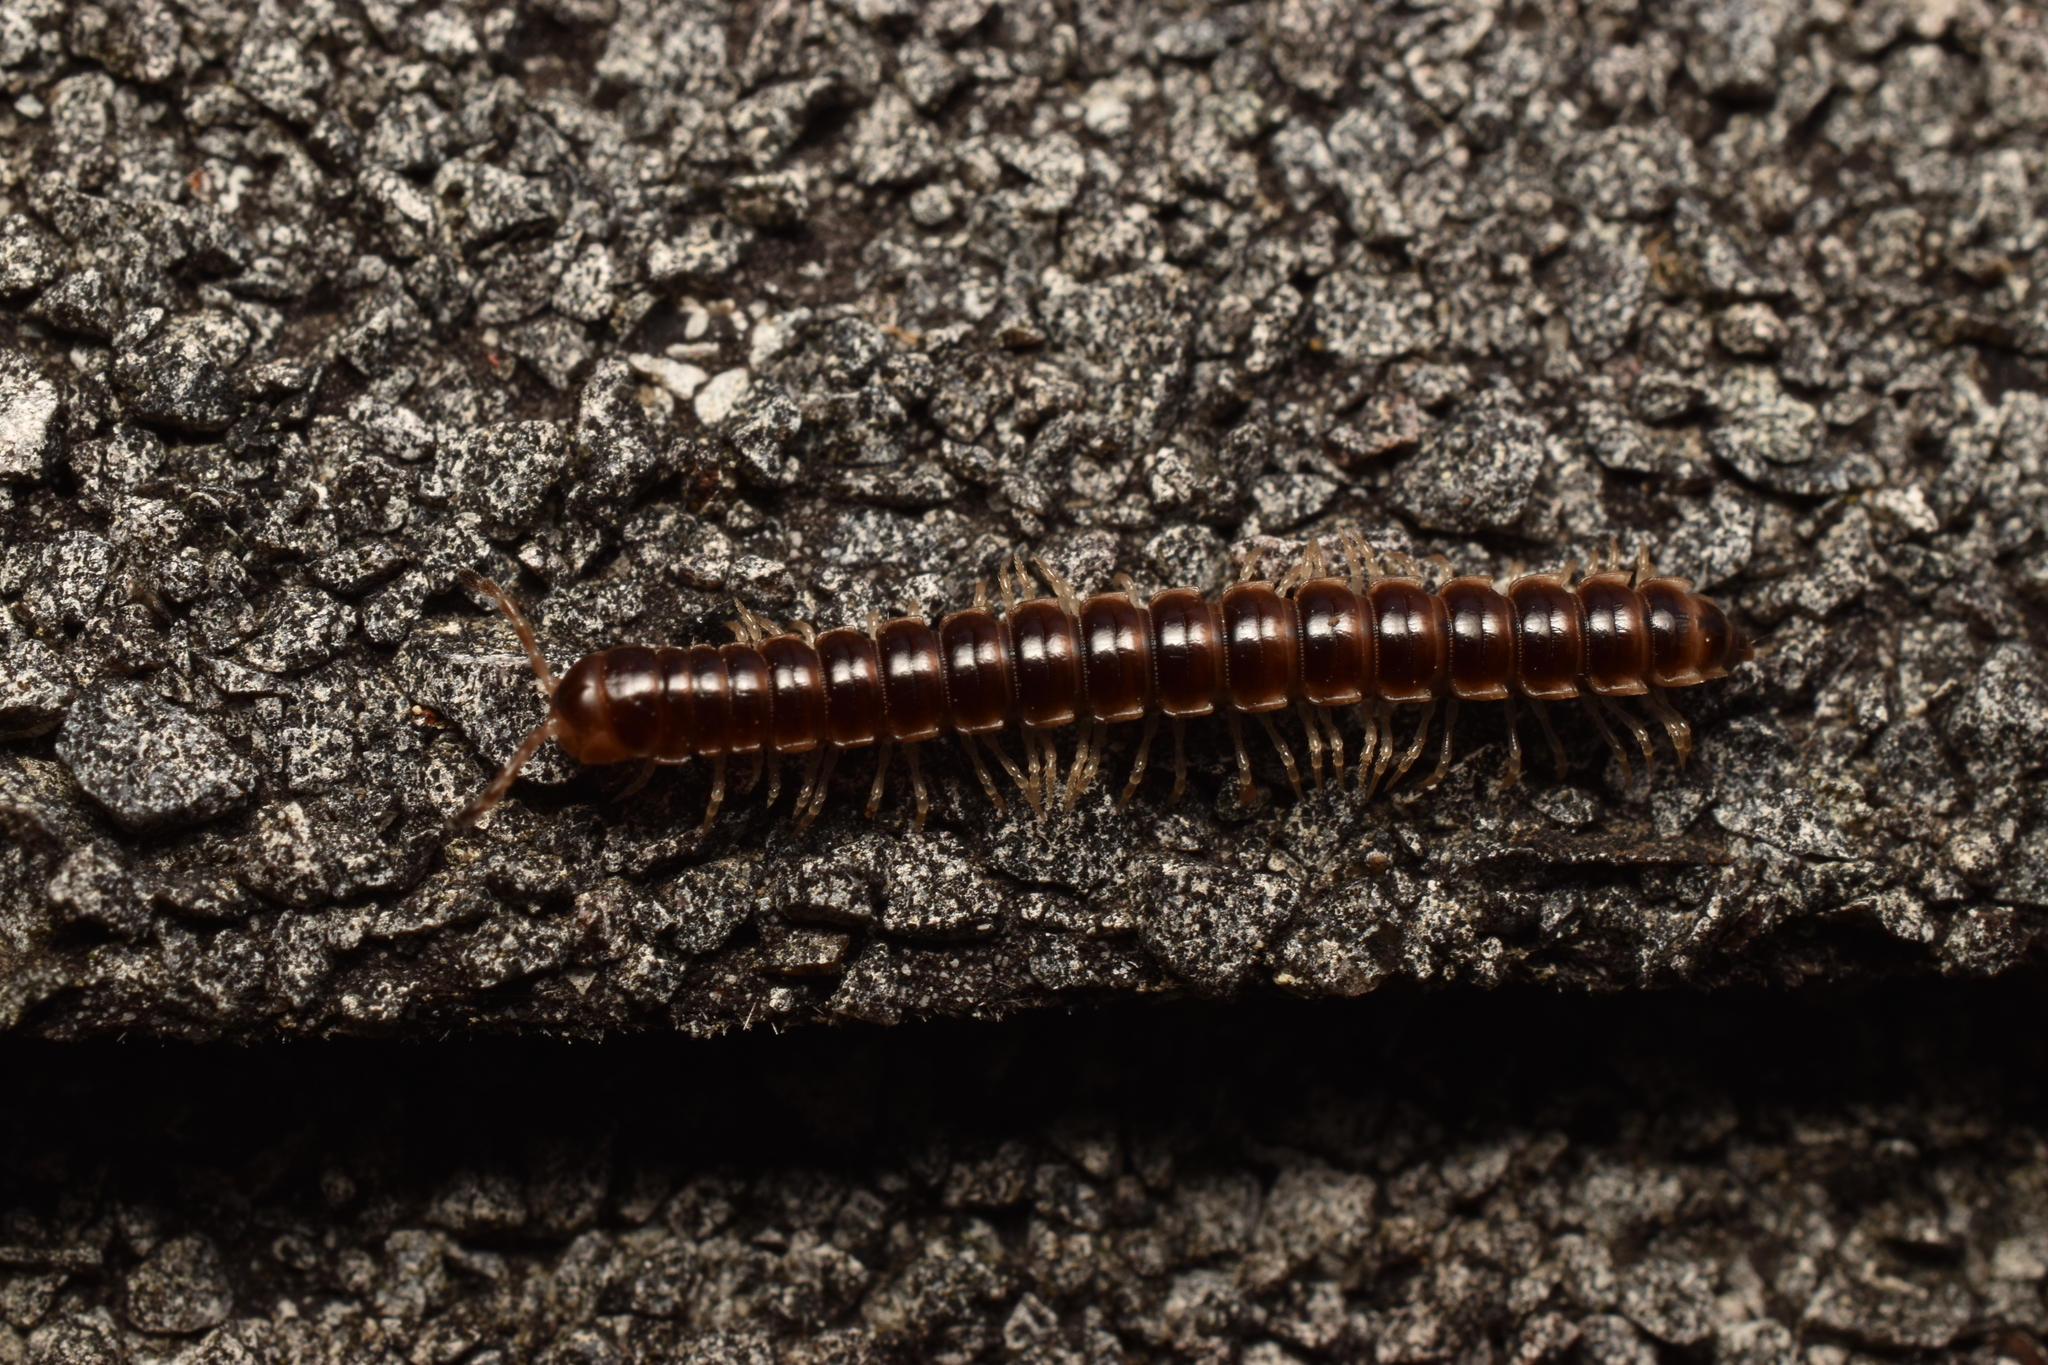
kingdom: Animalia
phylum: Arthropoda
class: Diplopoda
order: Polydesmida
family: Paradoxosomatidae
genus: Oxidus
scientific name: Oxidus gracilis
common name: Greenhouse millipede
